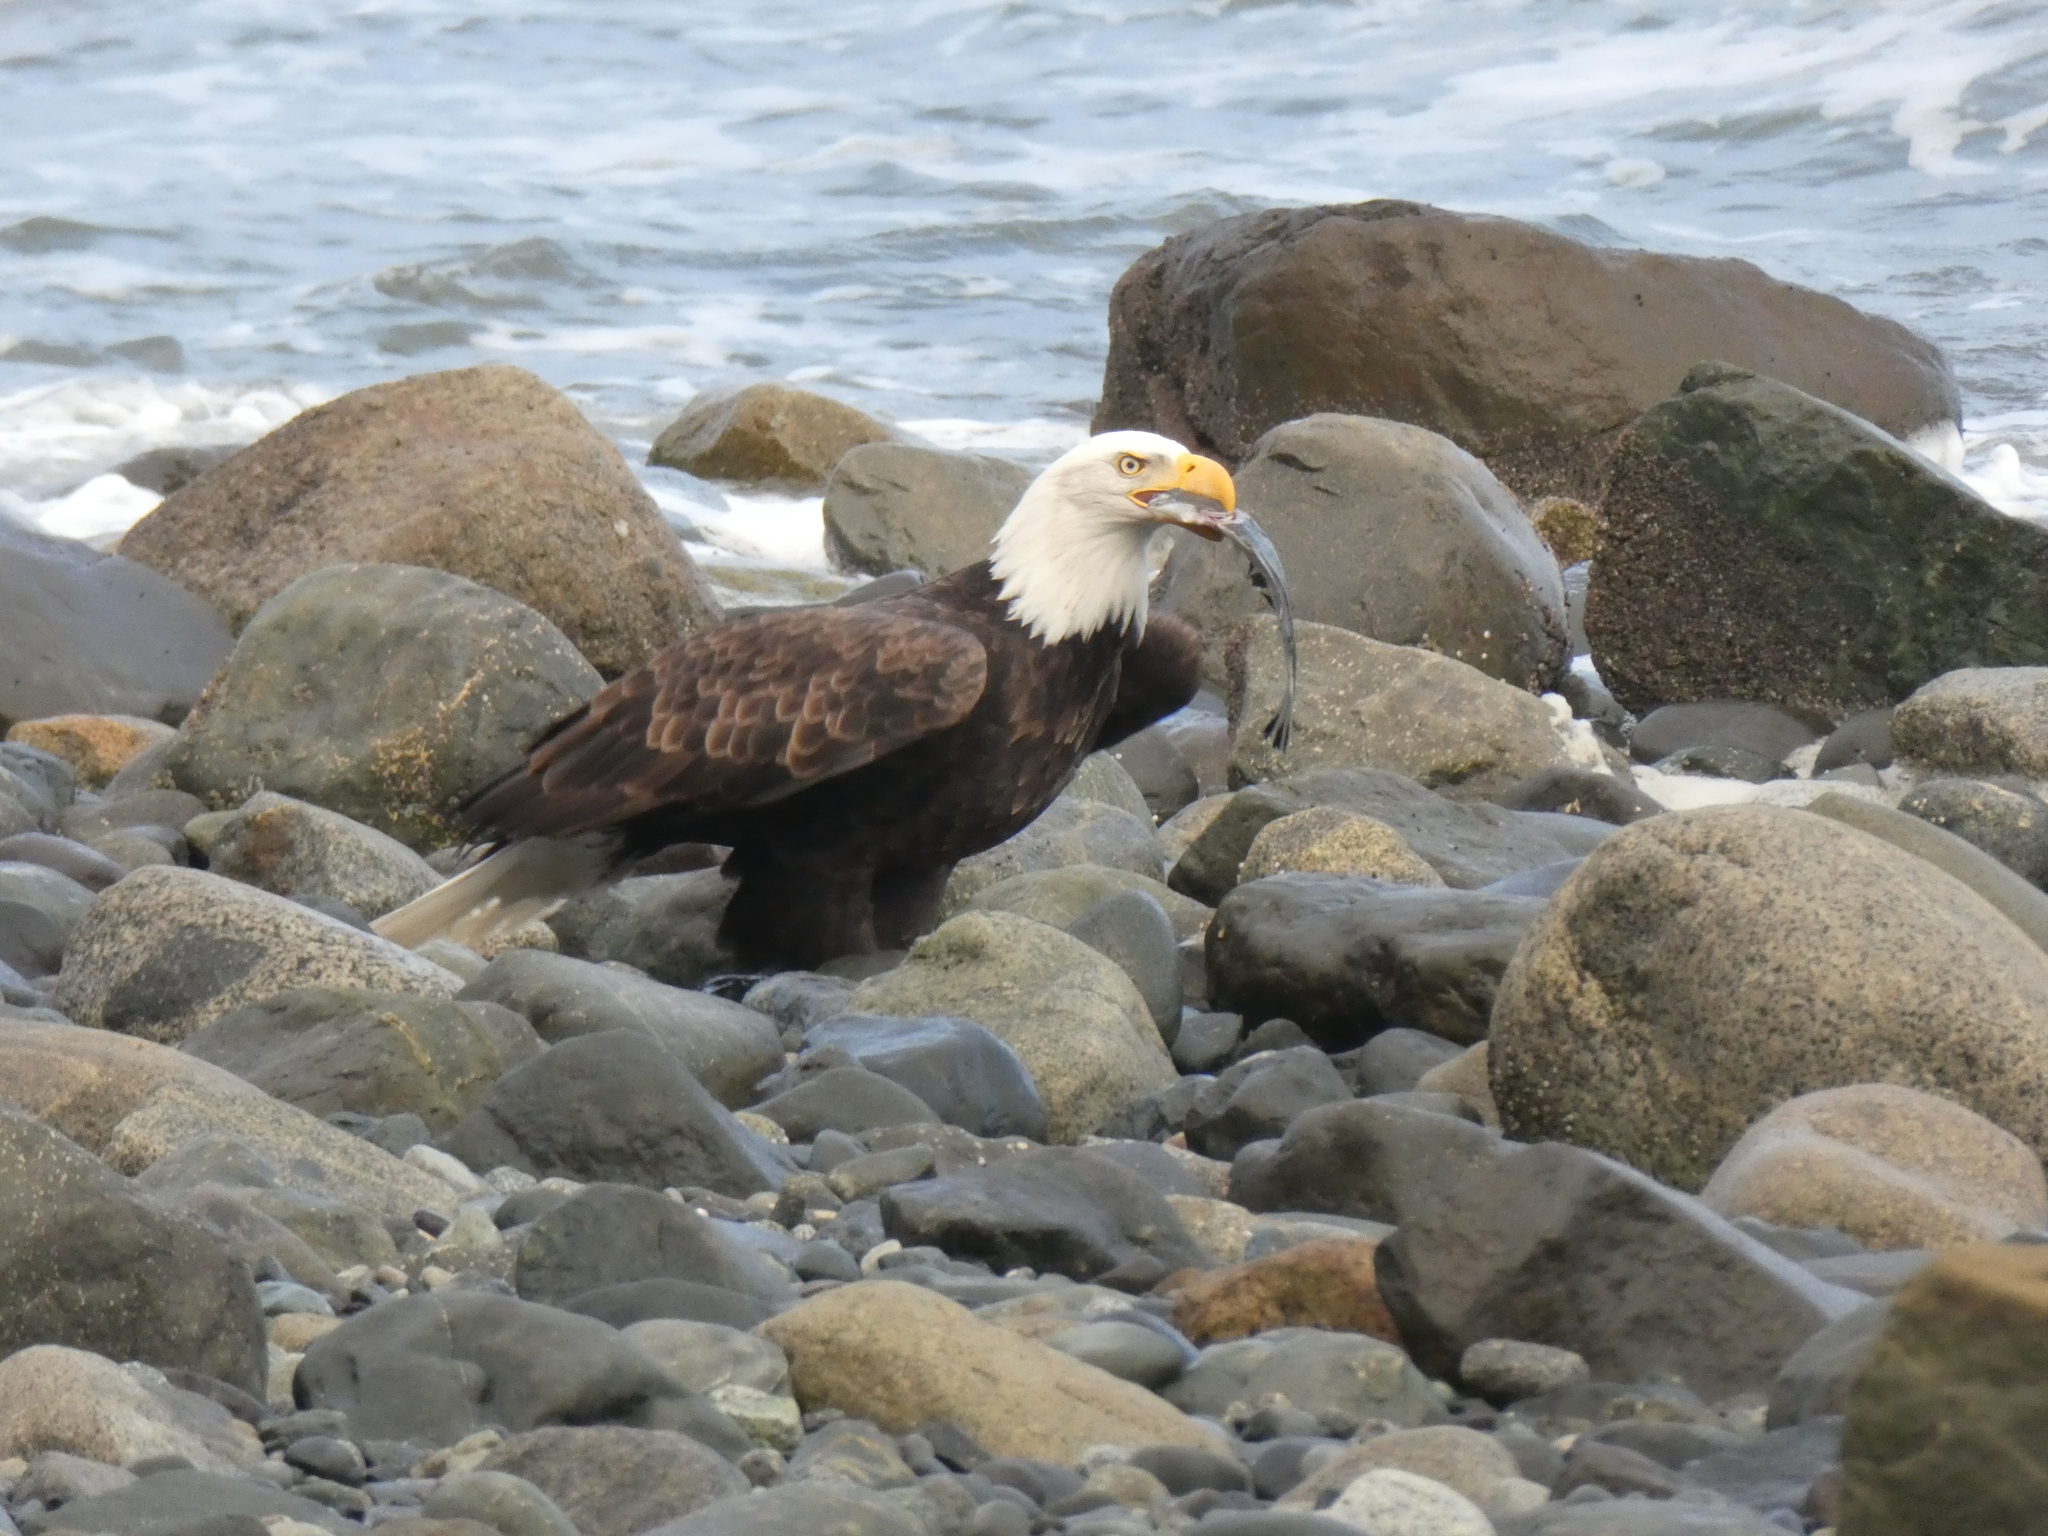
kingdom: Animalia
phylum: Chordata
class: Aves
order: Accipitriformes
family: Accipitridae
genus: Haliaeetus
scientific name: Haliaeetus leucocephalus
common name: Bald eagle
